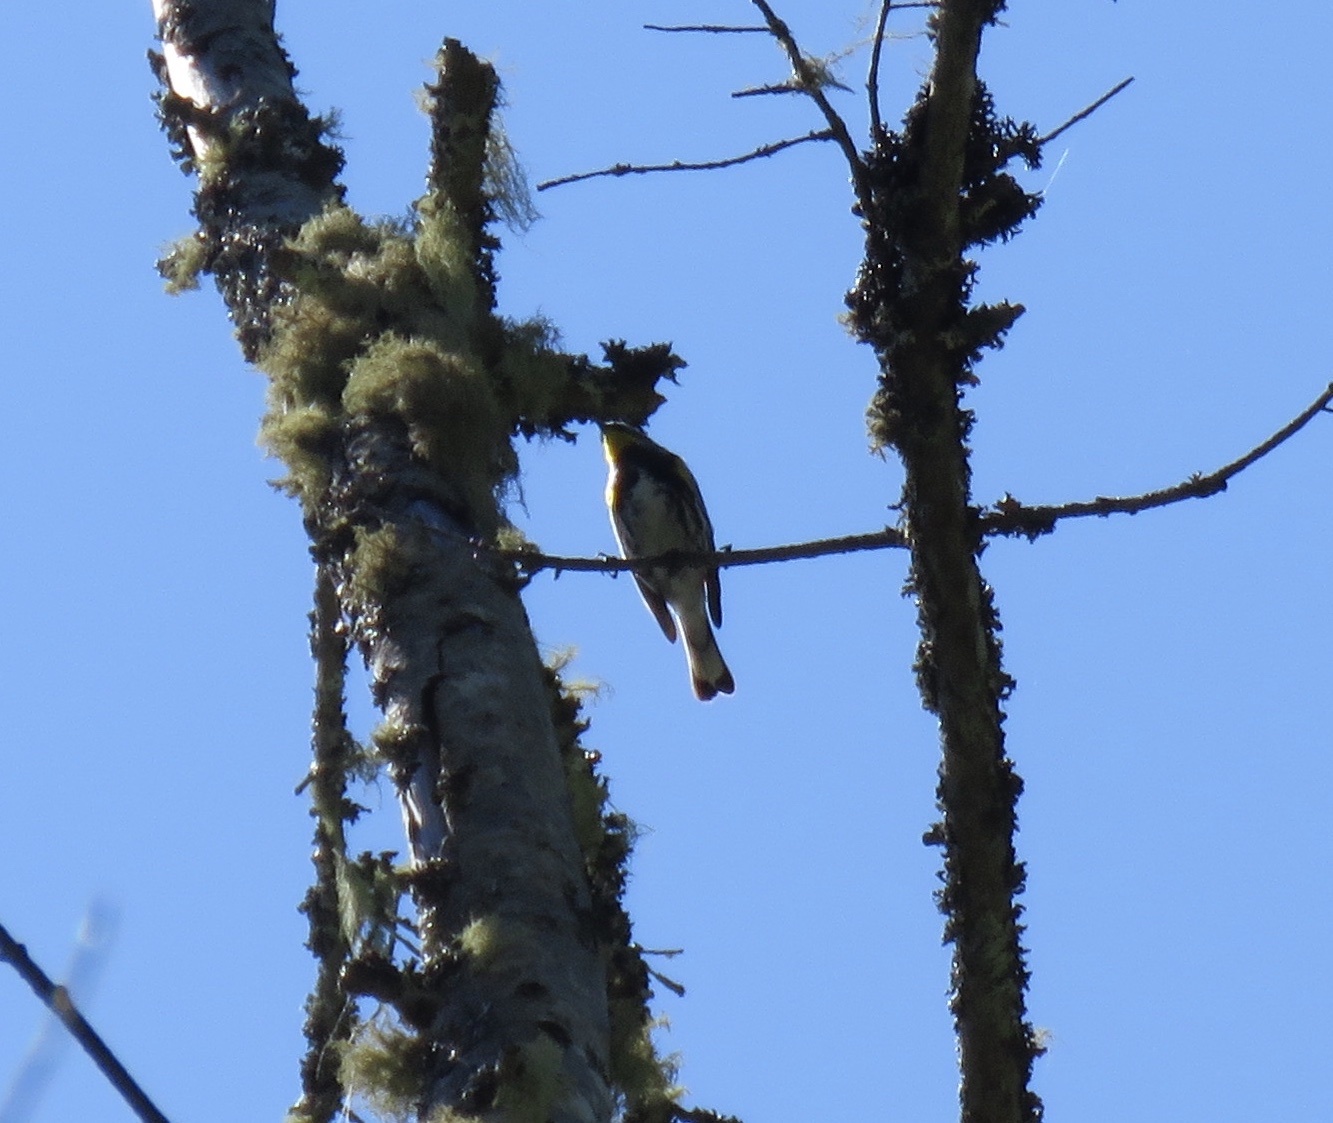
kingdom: Animalia
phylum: Chordata
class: Aves
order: Passeriformes
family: Parulidae
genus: Setophaga
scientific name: Setophaga coronata
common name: Myrtle warbler
